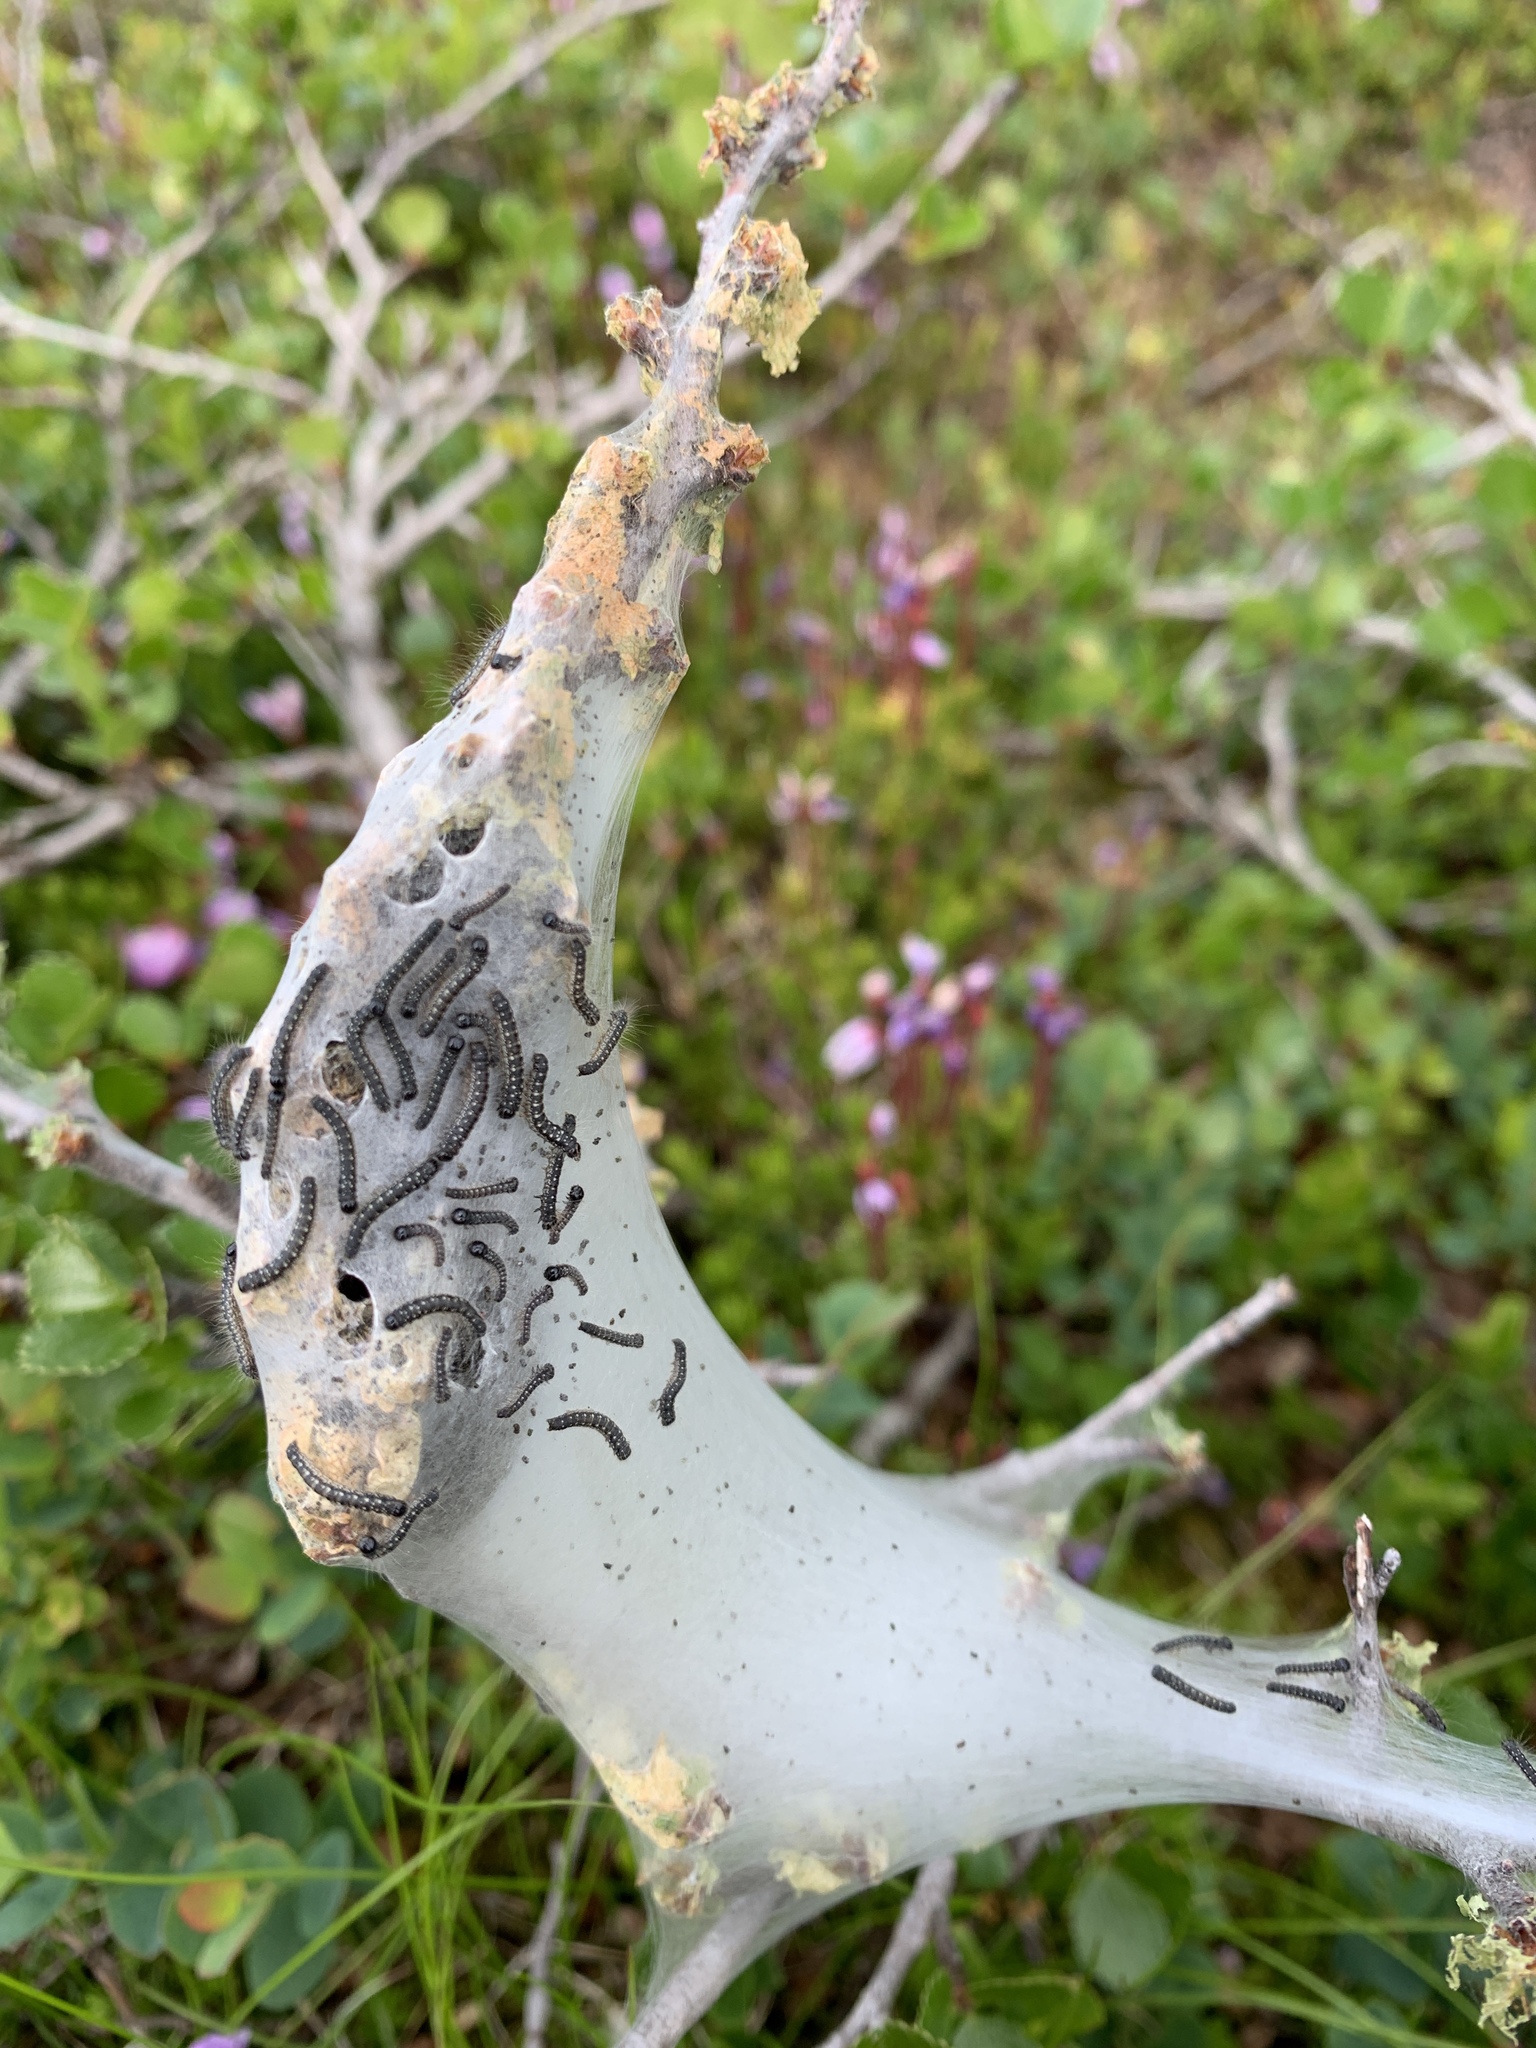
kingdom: Animalia
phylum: Arthropoda
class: Insecta
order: Lepidoptera
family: Lasiocampidae
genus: Eriogaster
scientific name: Eriogaster arbusculae
